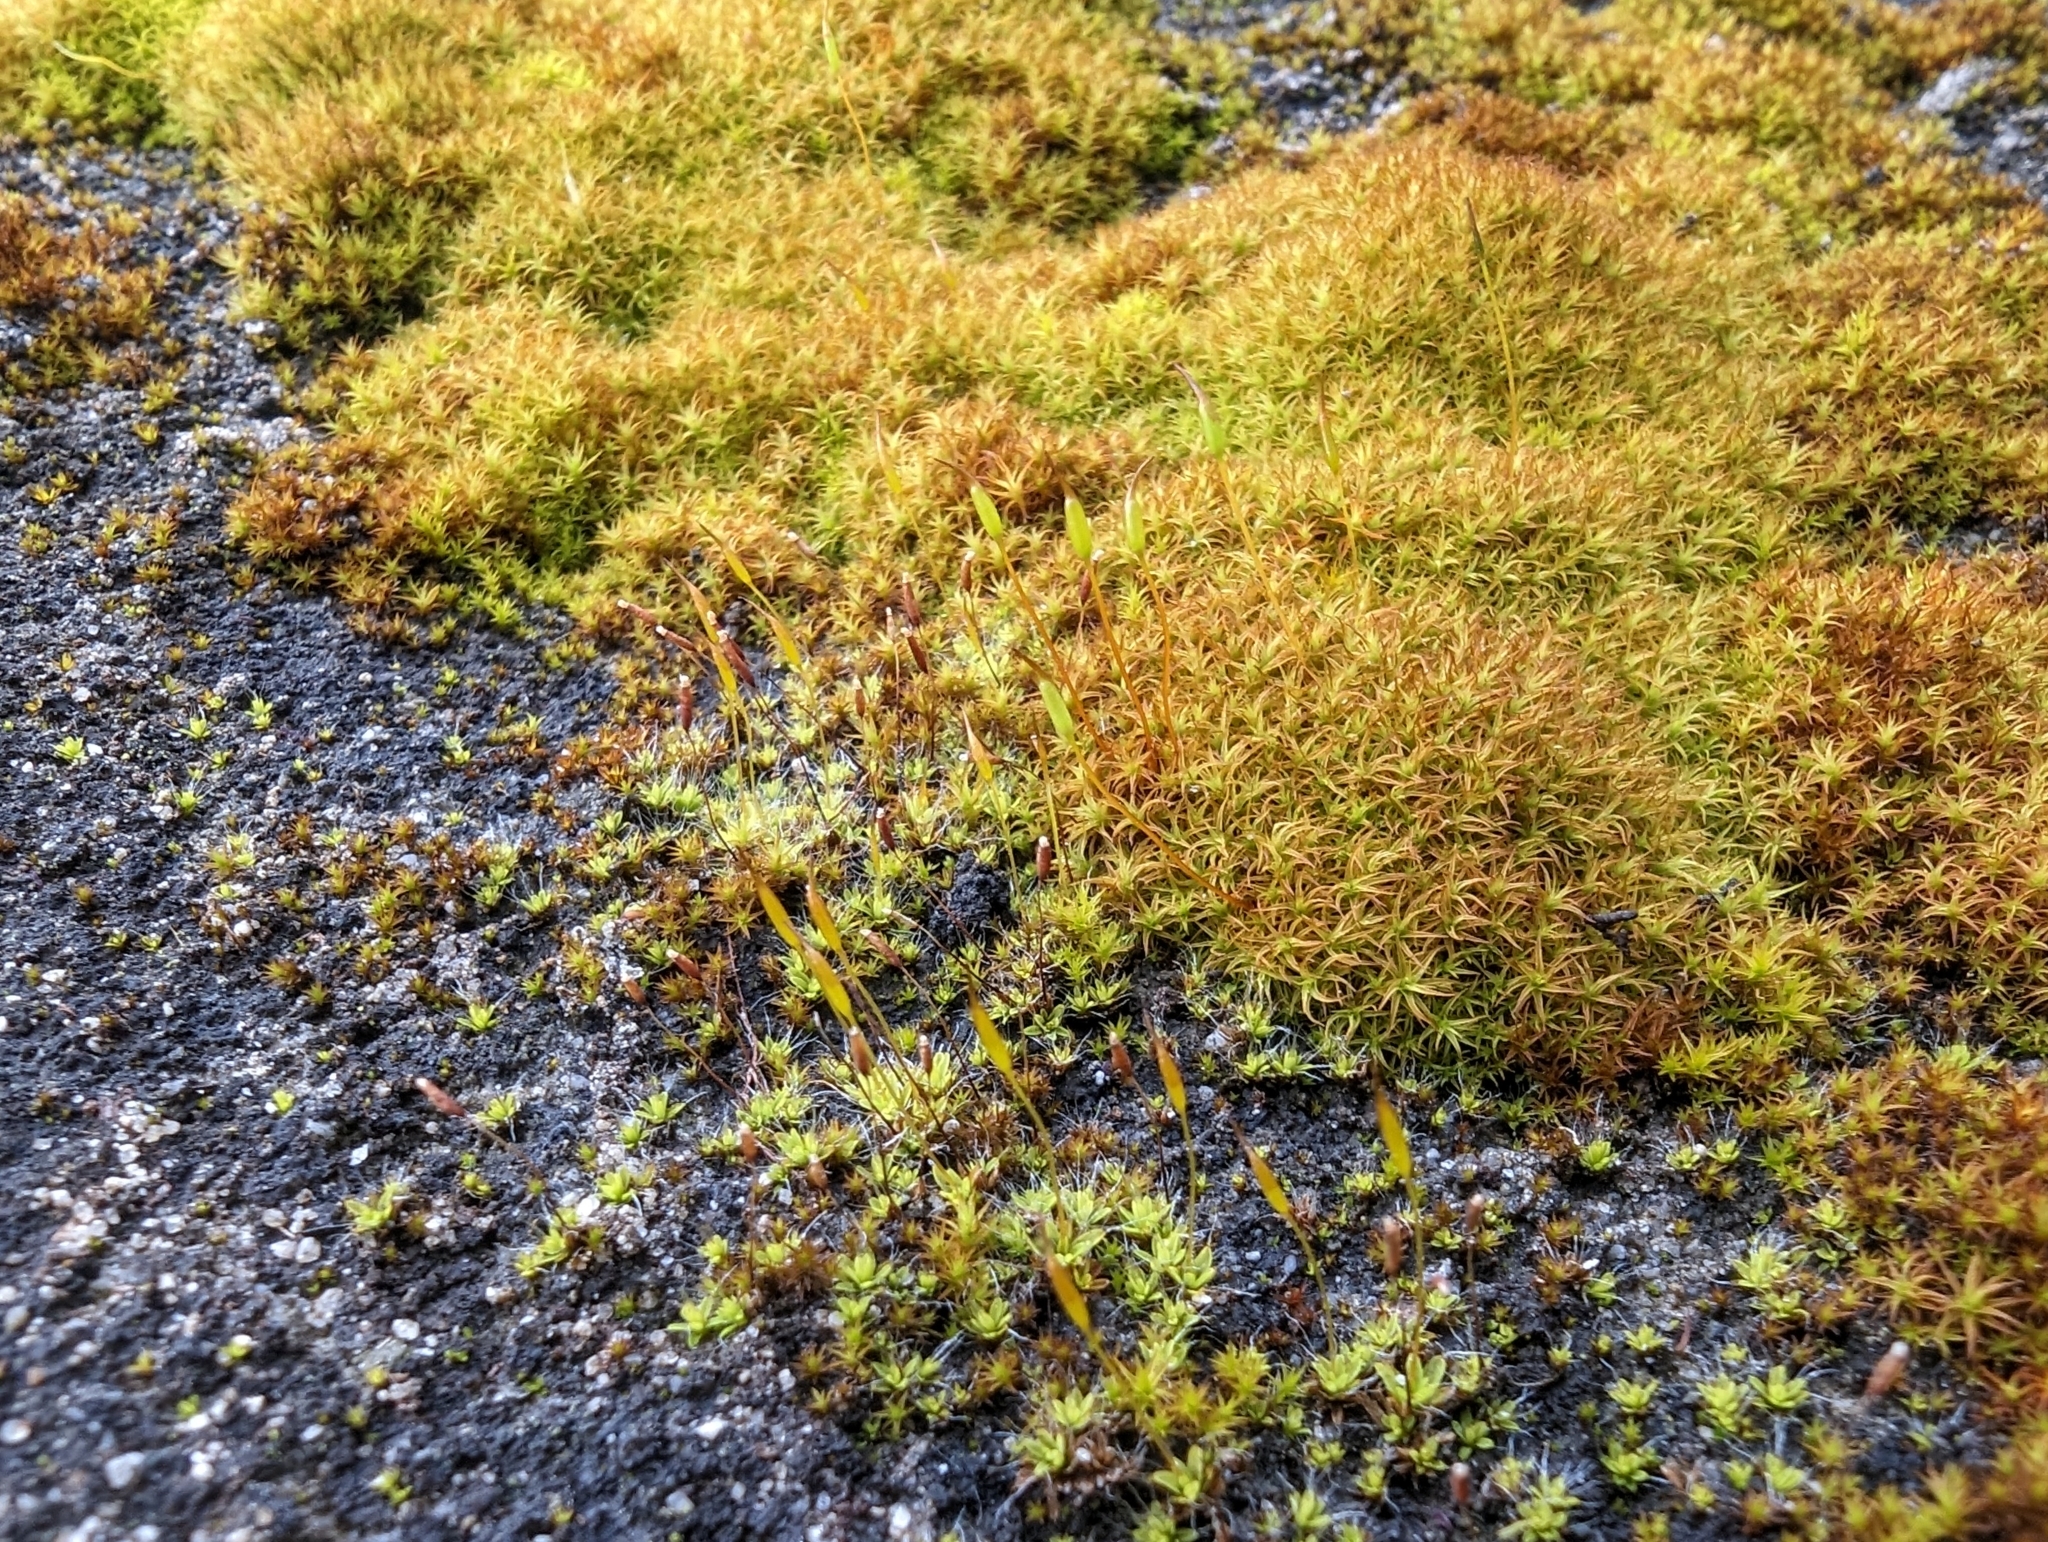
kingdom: Plantae
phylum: Bryophyta
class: Bryopsida
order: Pottiales
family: Pottiaceae
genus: Vinealobryum
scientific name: Vinealobryum vineale
